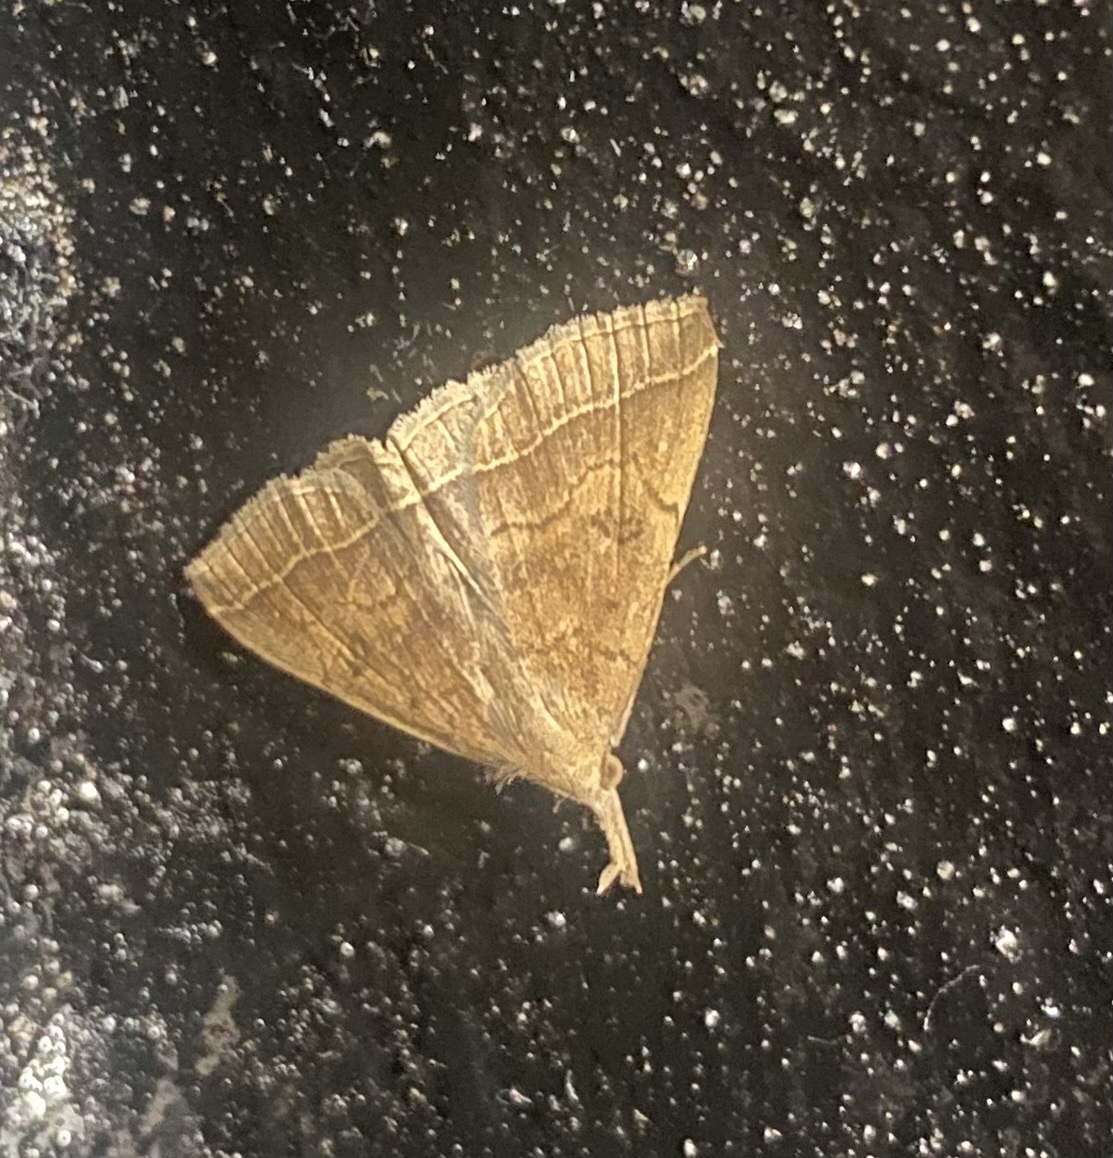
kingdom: Animalia
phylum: Arthropoda
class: Insecta
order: Lepidoptera
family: Erebidae
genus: Pechipogo
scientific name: Pechipogo plumigeralis
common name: Plumed fan-foot
